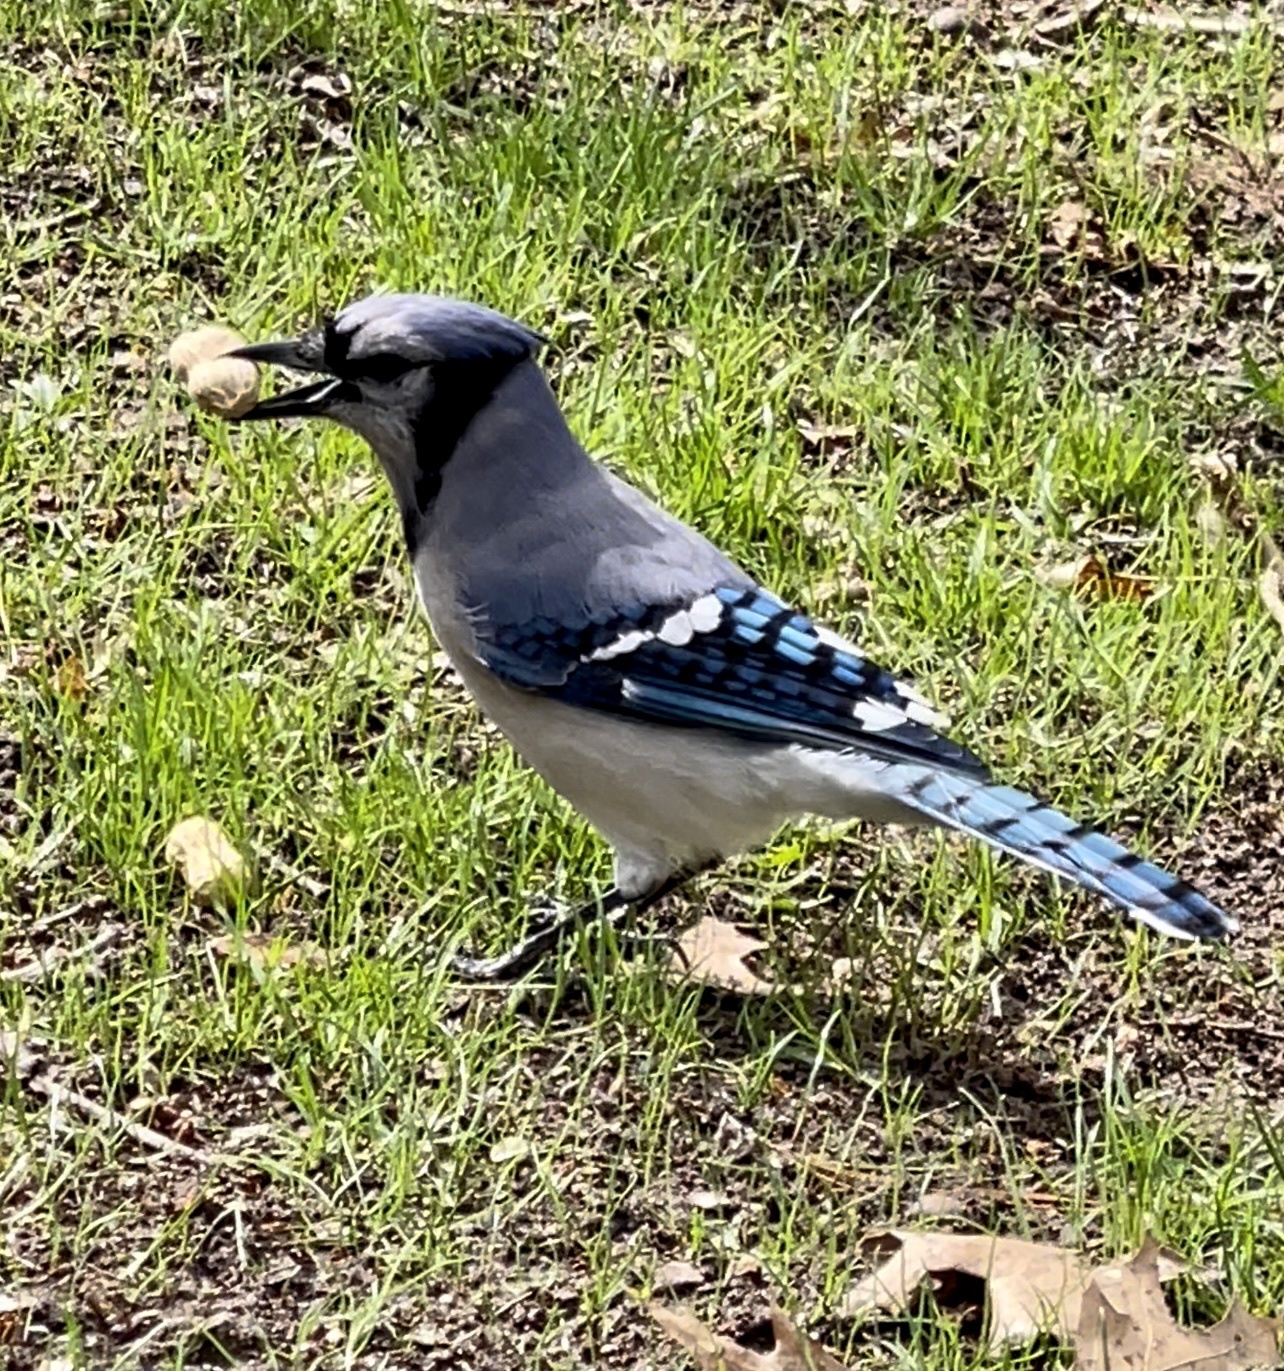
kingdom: Animalia
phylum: Chordata
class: Aves
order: Passeriformes
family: Corvidae
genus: Cyanocitta
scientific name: Cyanocitta cristata
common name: Blue jay
